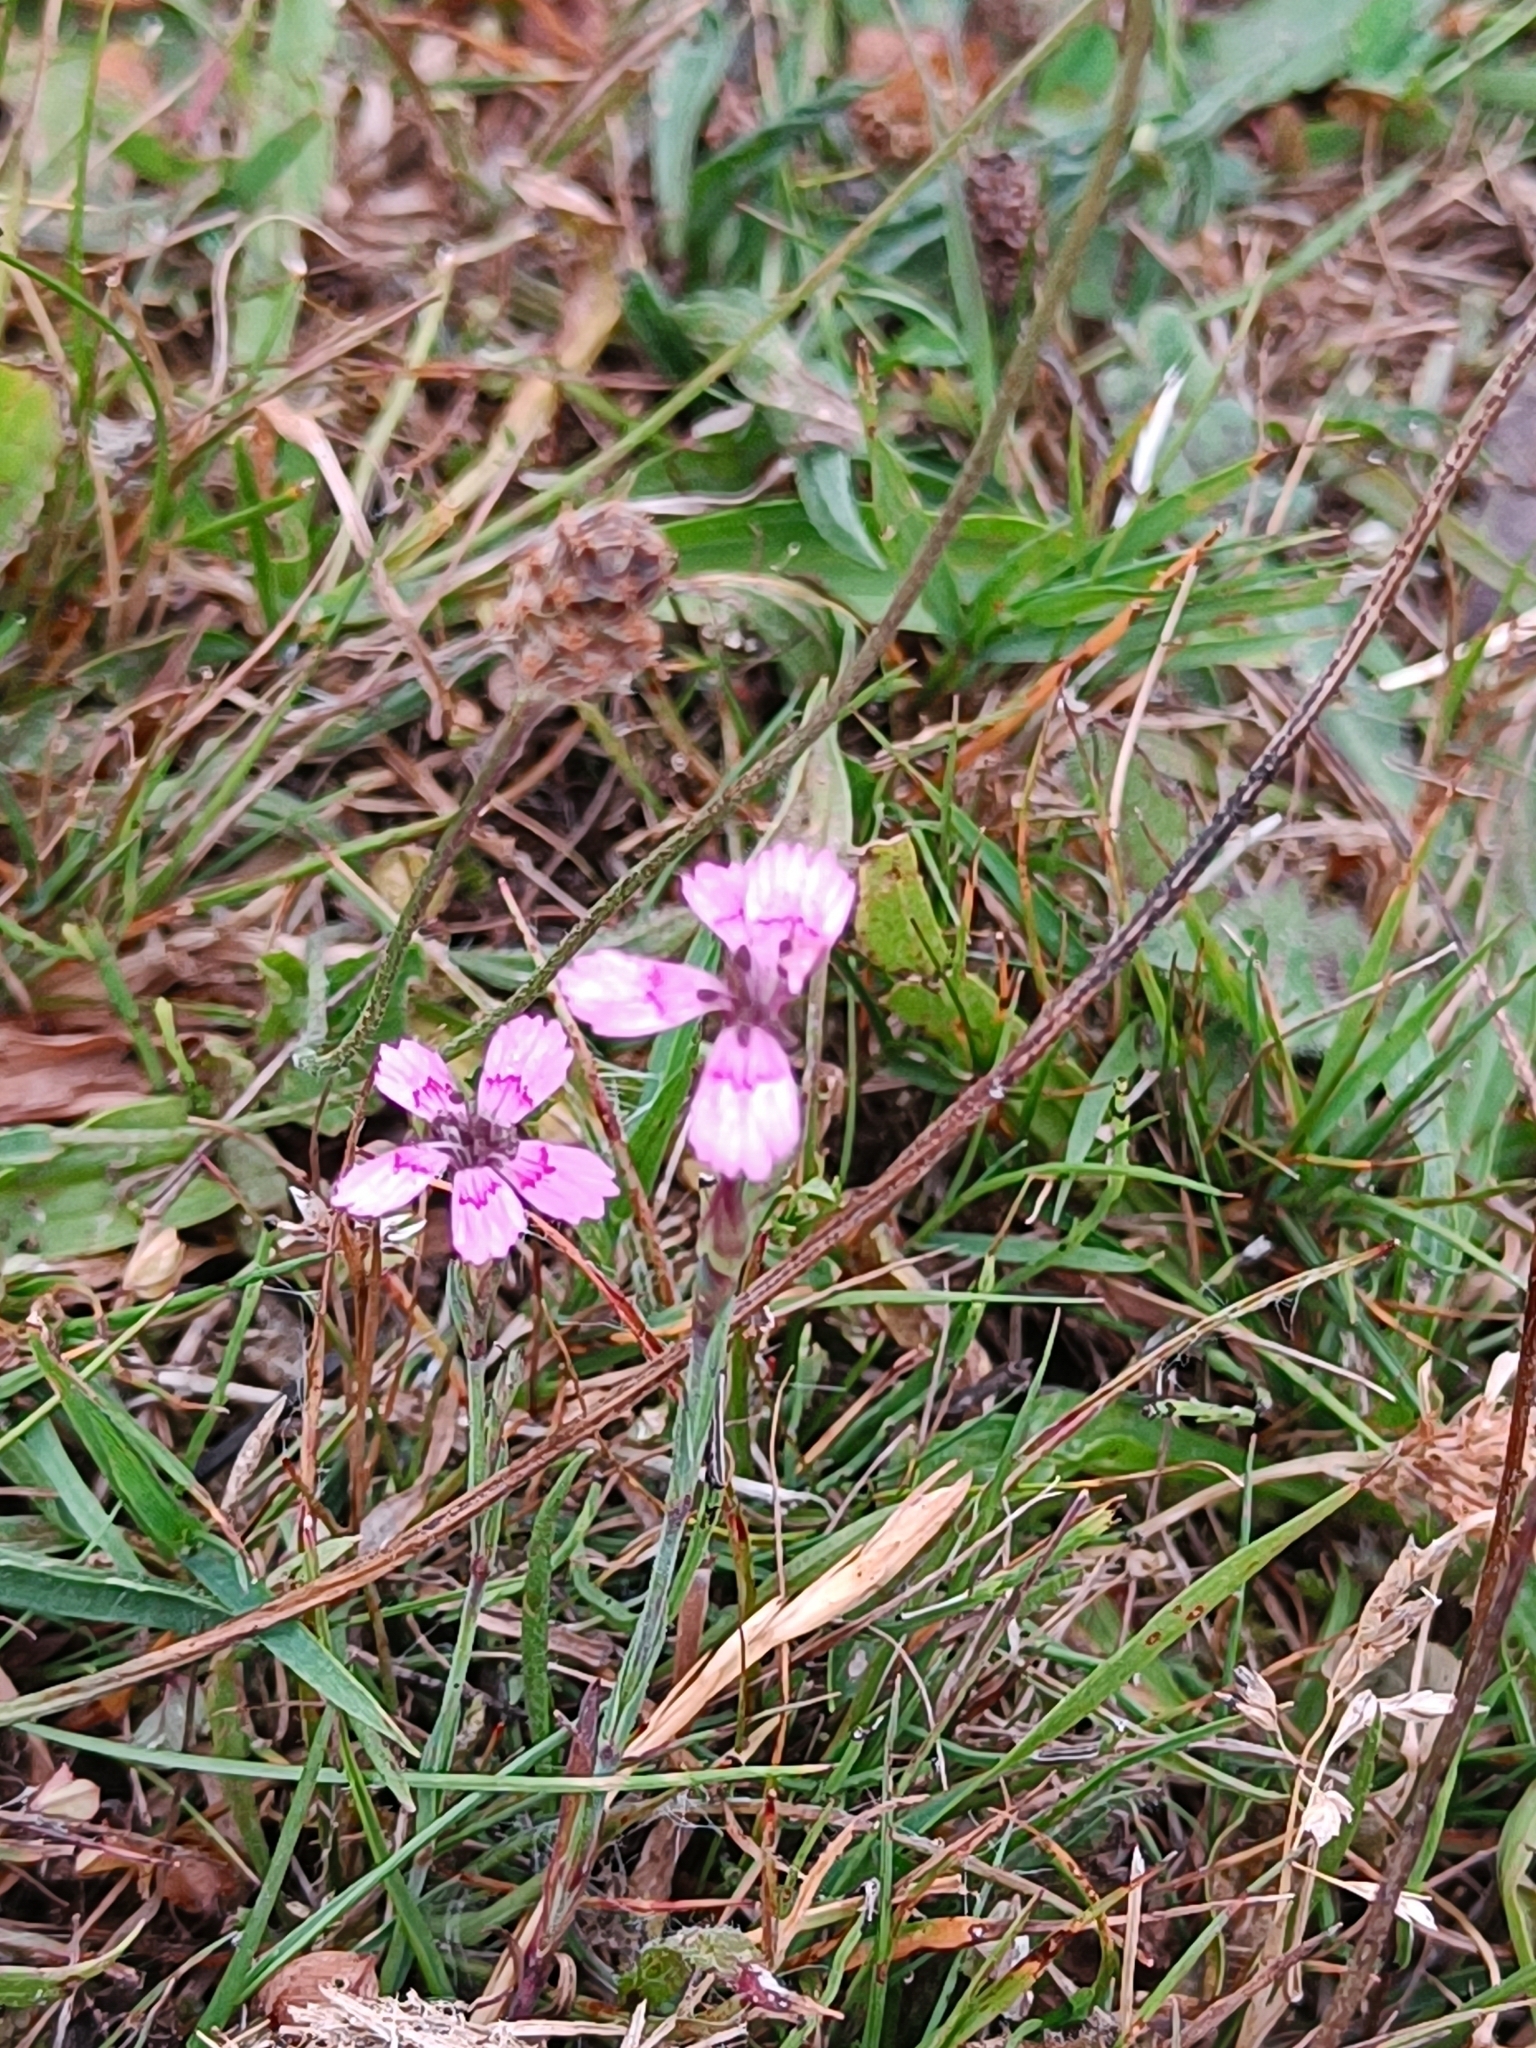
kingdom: Plantae
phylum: Tracheophyta
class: Magnoliopsida
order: Caryophyllales
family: Caryophyllaceae
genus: Dianthus
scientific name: Dianthus deltoides
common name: Maiden pink
